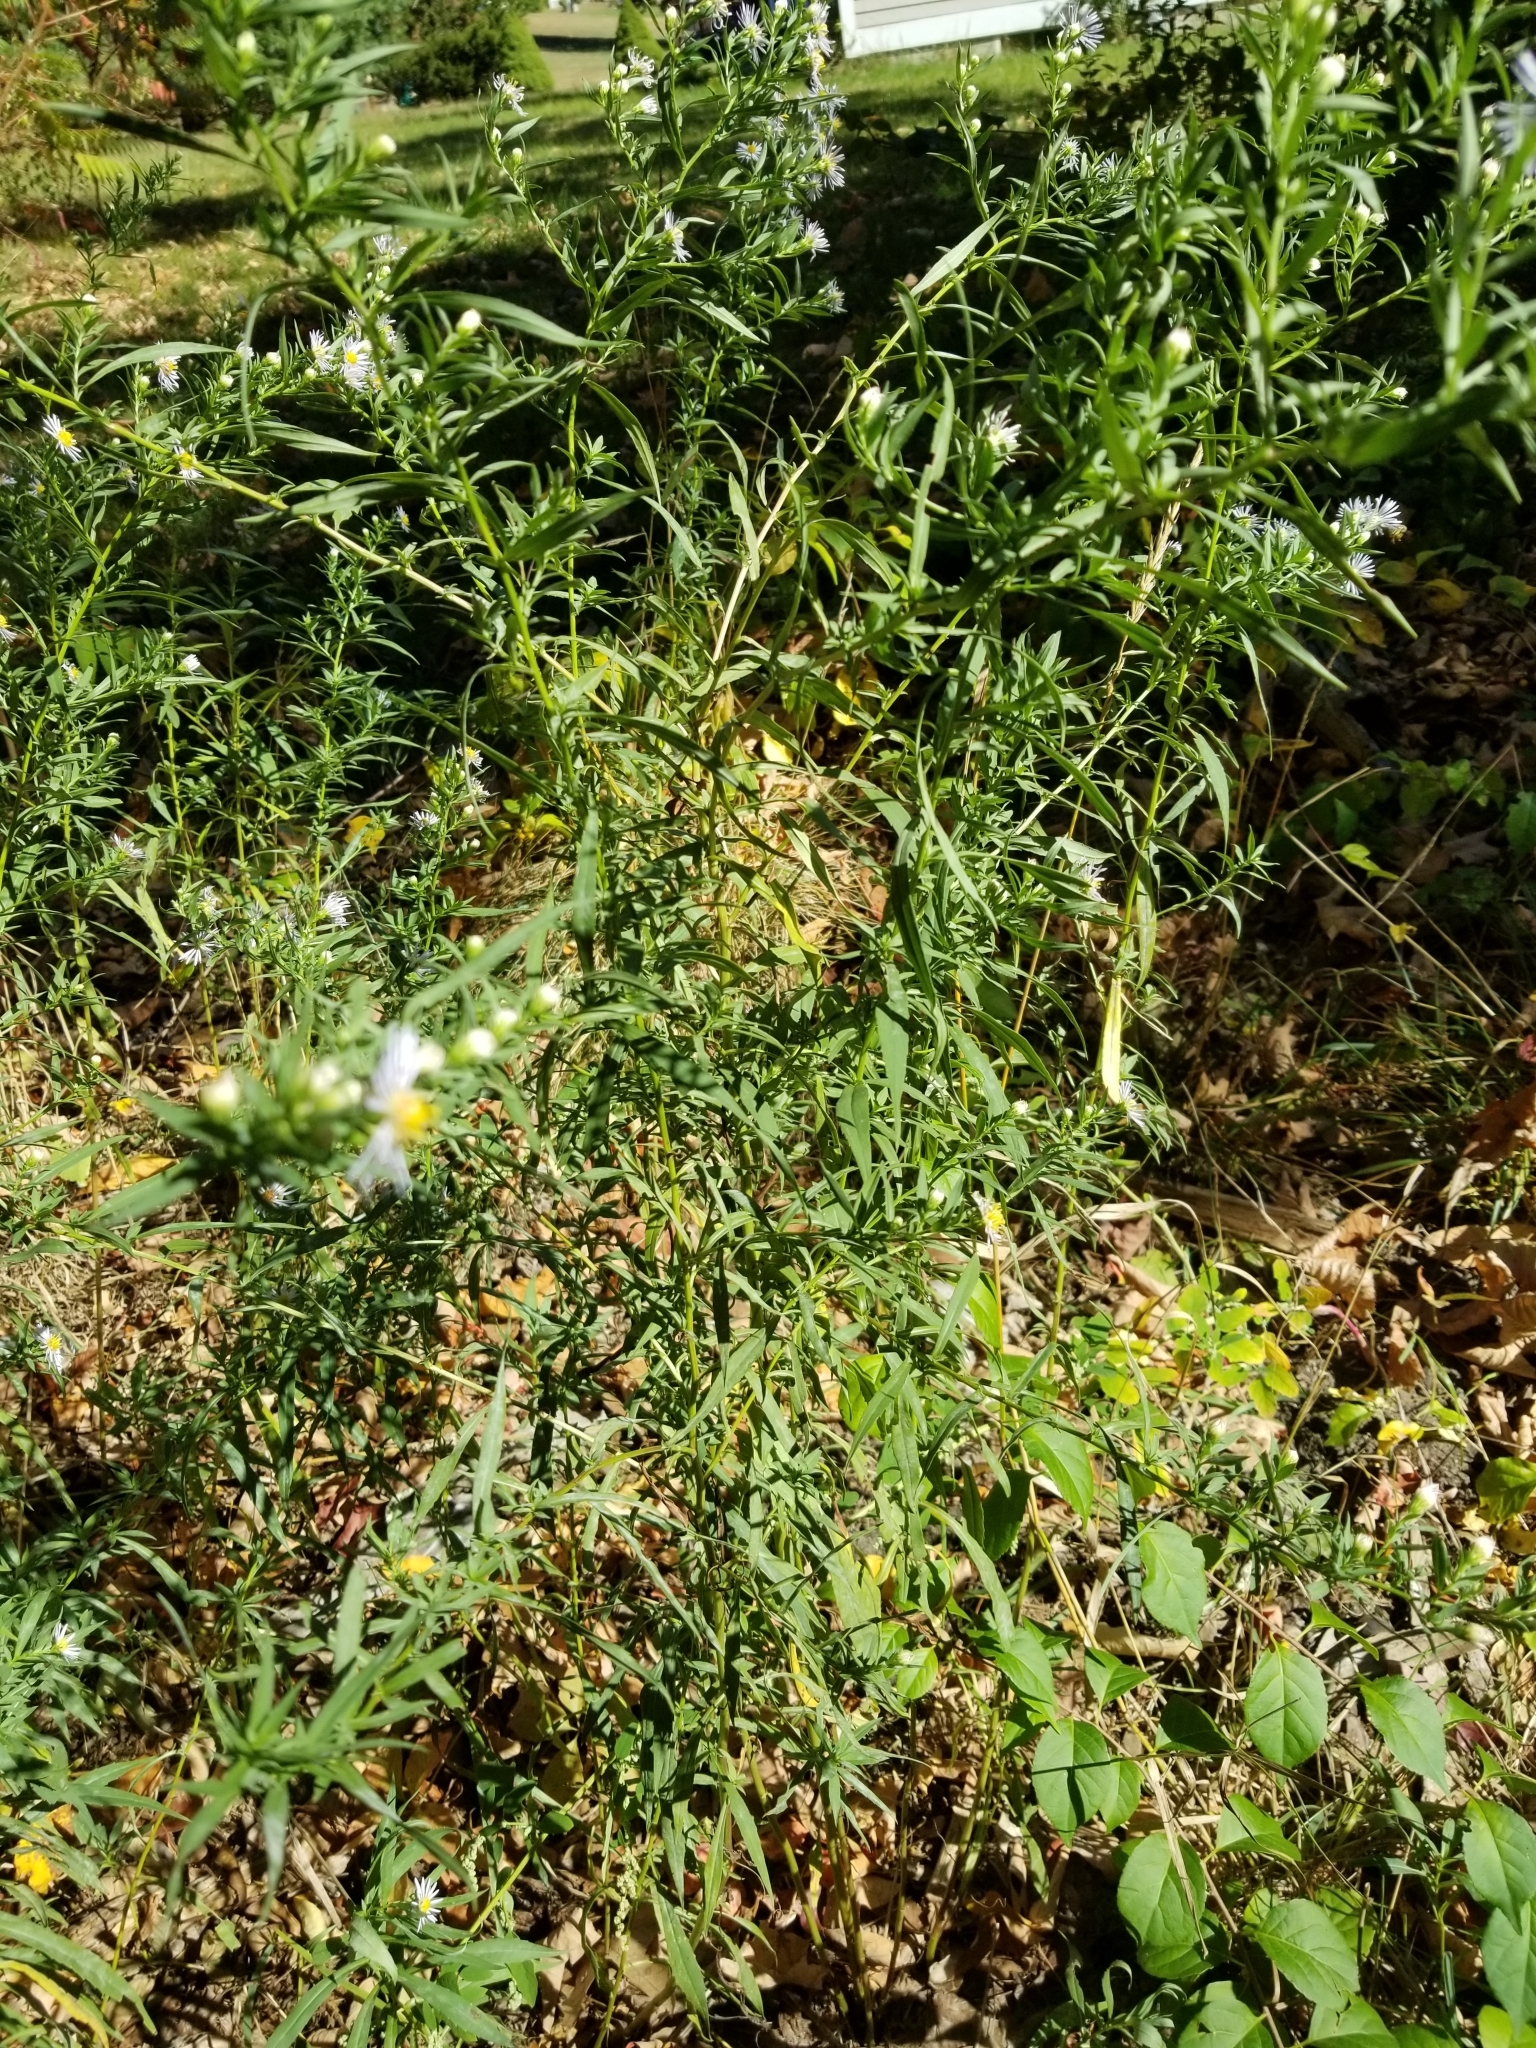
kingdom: Plantae
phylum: Tracheophyta
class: Magnoliopsida
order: Asterales
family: Asteraceae
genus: Symphyotrichum
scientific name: Symphyotrichum novi-belgii
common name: Michaelmas daisy
